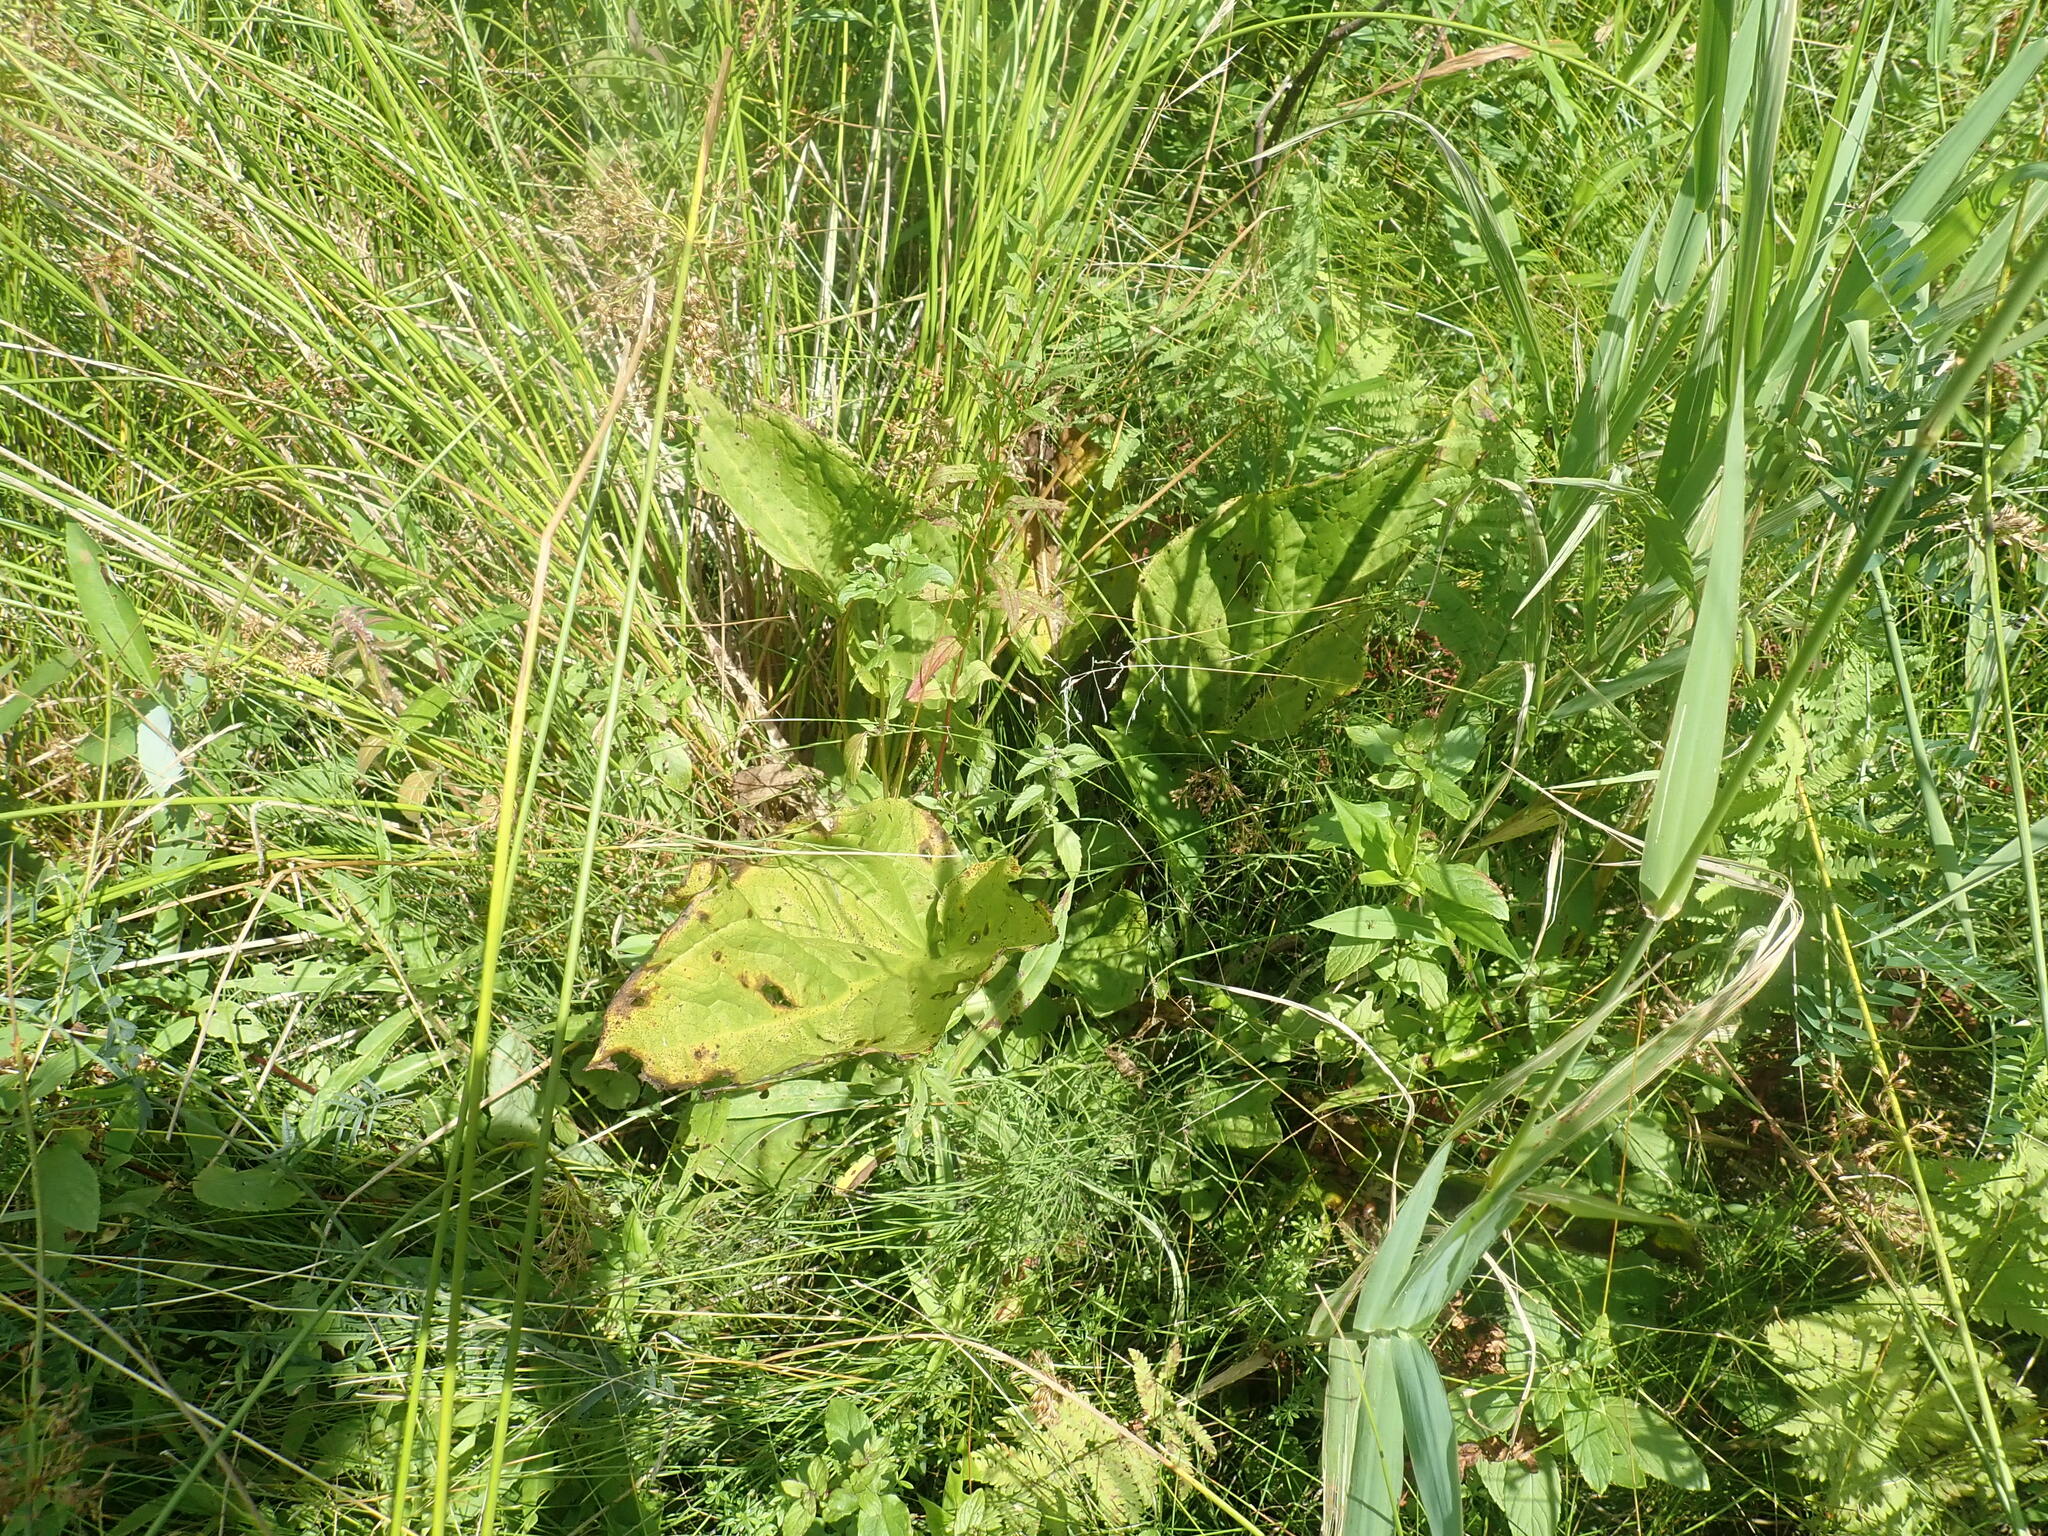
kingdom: Plantae
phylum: Tracheophyta
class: Liliopsida
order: Alismatales
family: Araceae
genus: Symplocarpus
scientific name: Symplocarpus foetidus
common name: Eastern skunk cabbage
